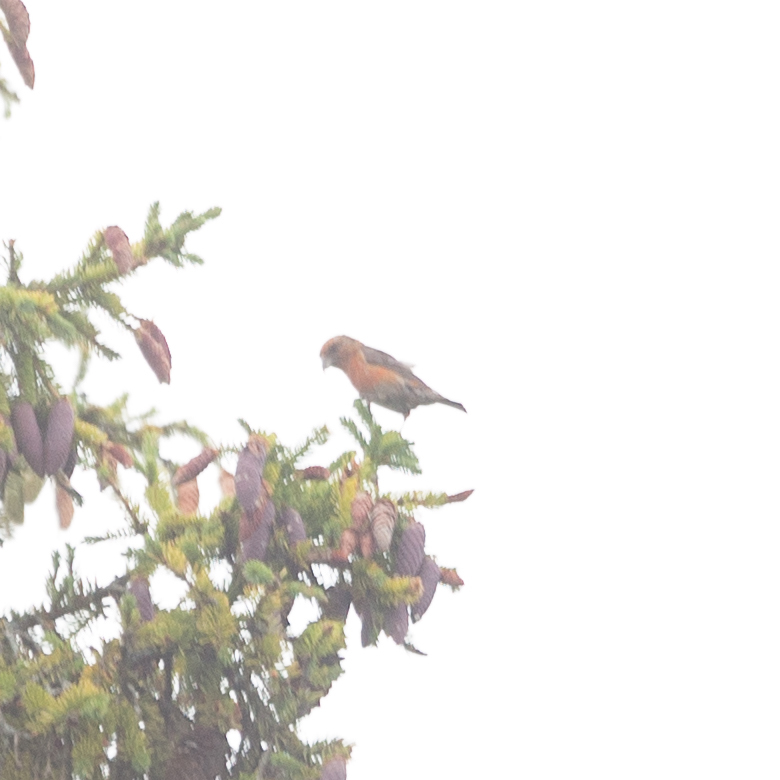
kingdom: Animalia
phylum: Chordata
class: Aves
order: Passeriformes
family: Fringillidae
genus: Loxia
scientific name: Loxia curvirostra
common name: Red crossbill
